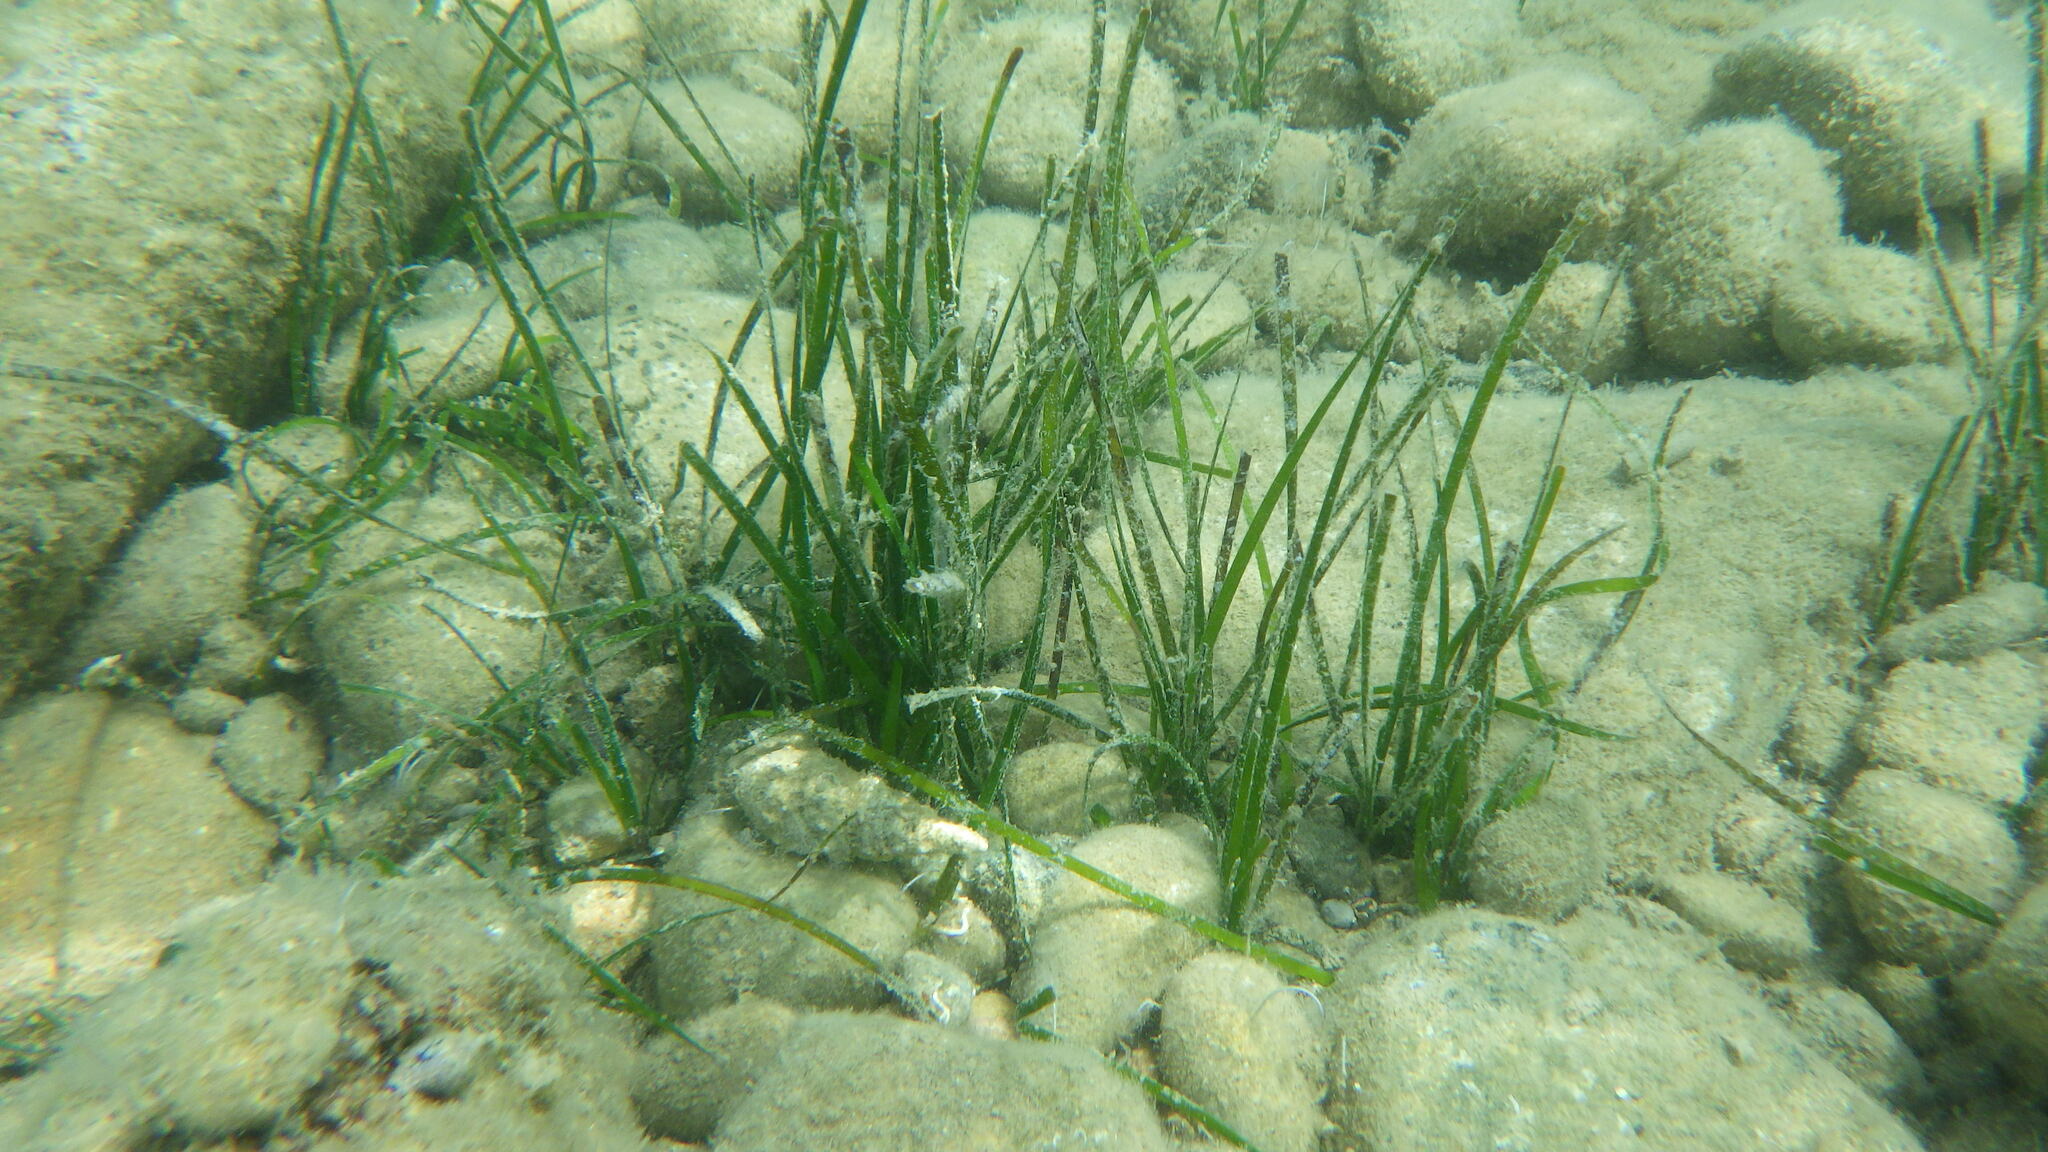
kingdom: Plantae
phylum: Tracheophyta
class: Liliopsida
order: Alismatales
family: Cymodoceaceae
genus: Cymodocea
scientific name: Cymodocea nodosa
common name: Slender seagrass
